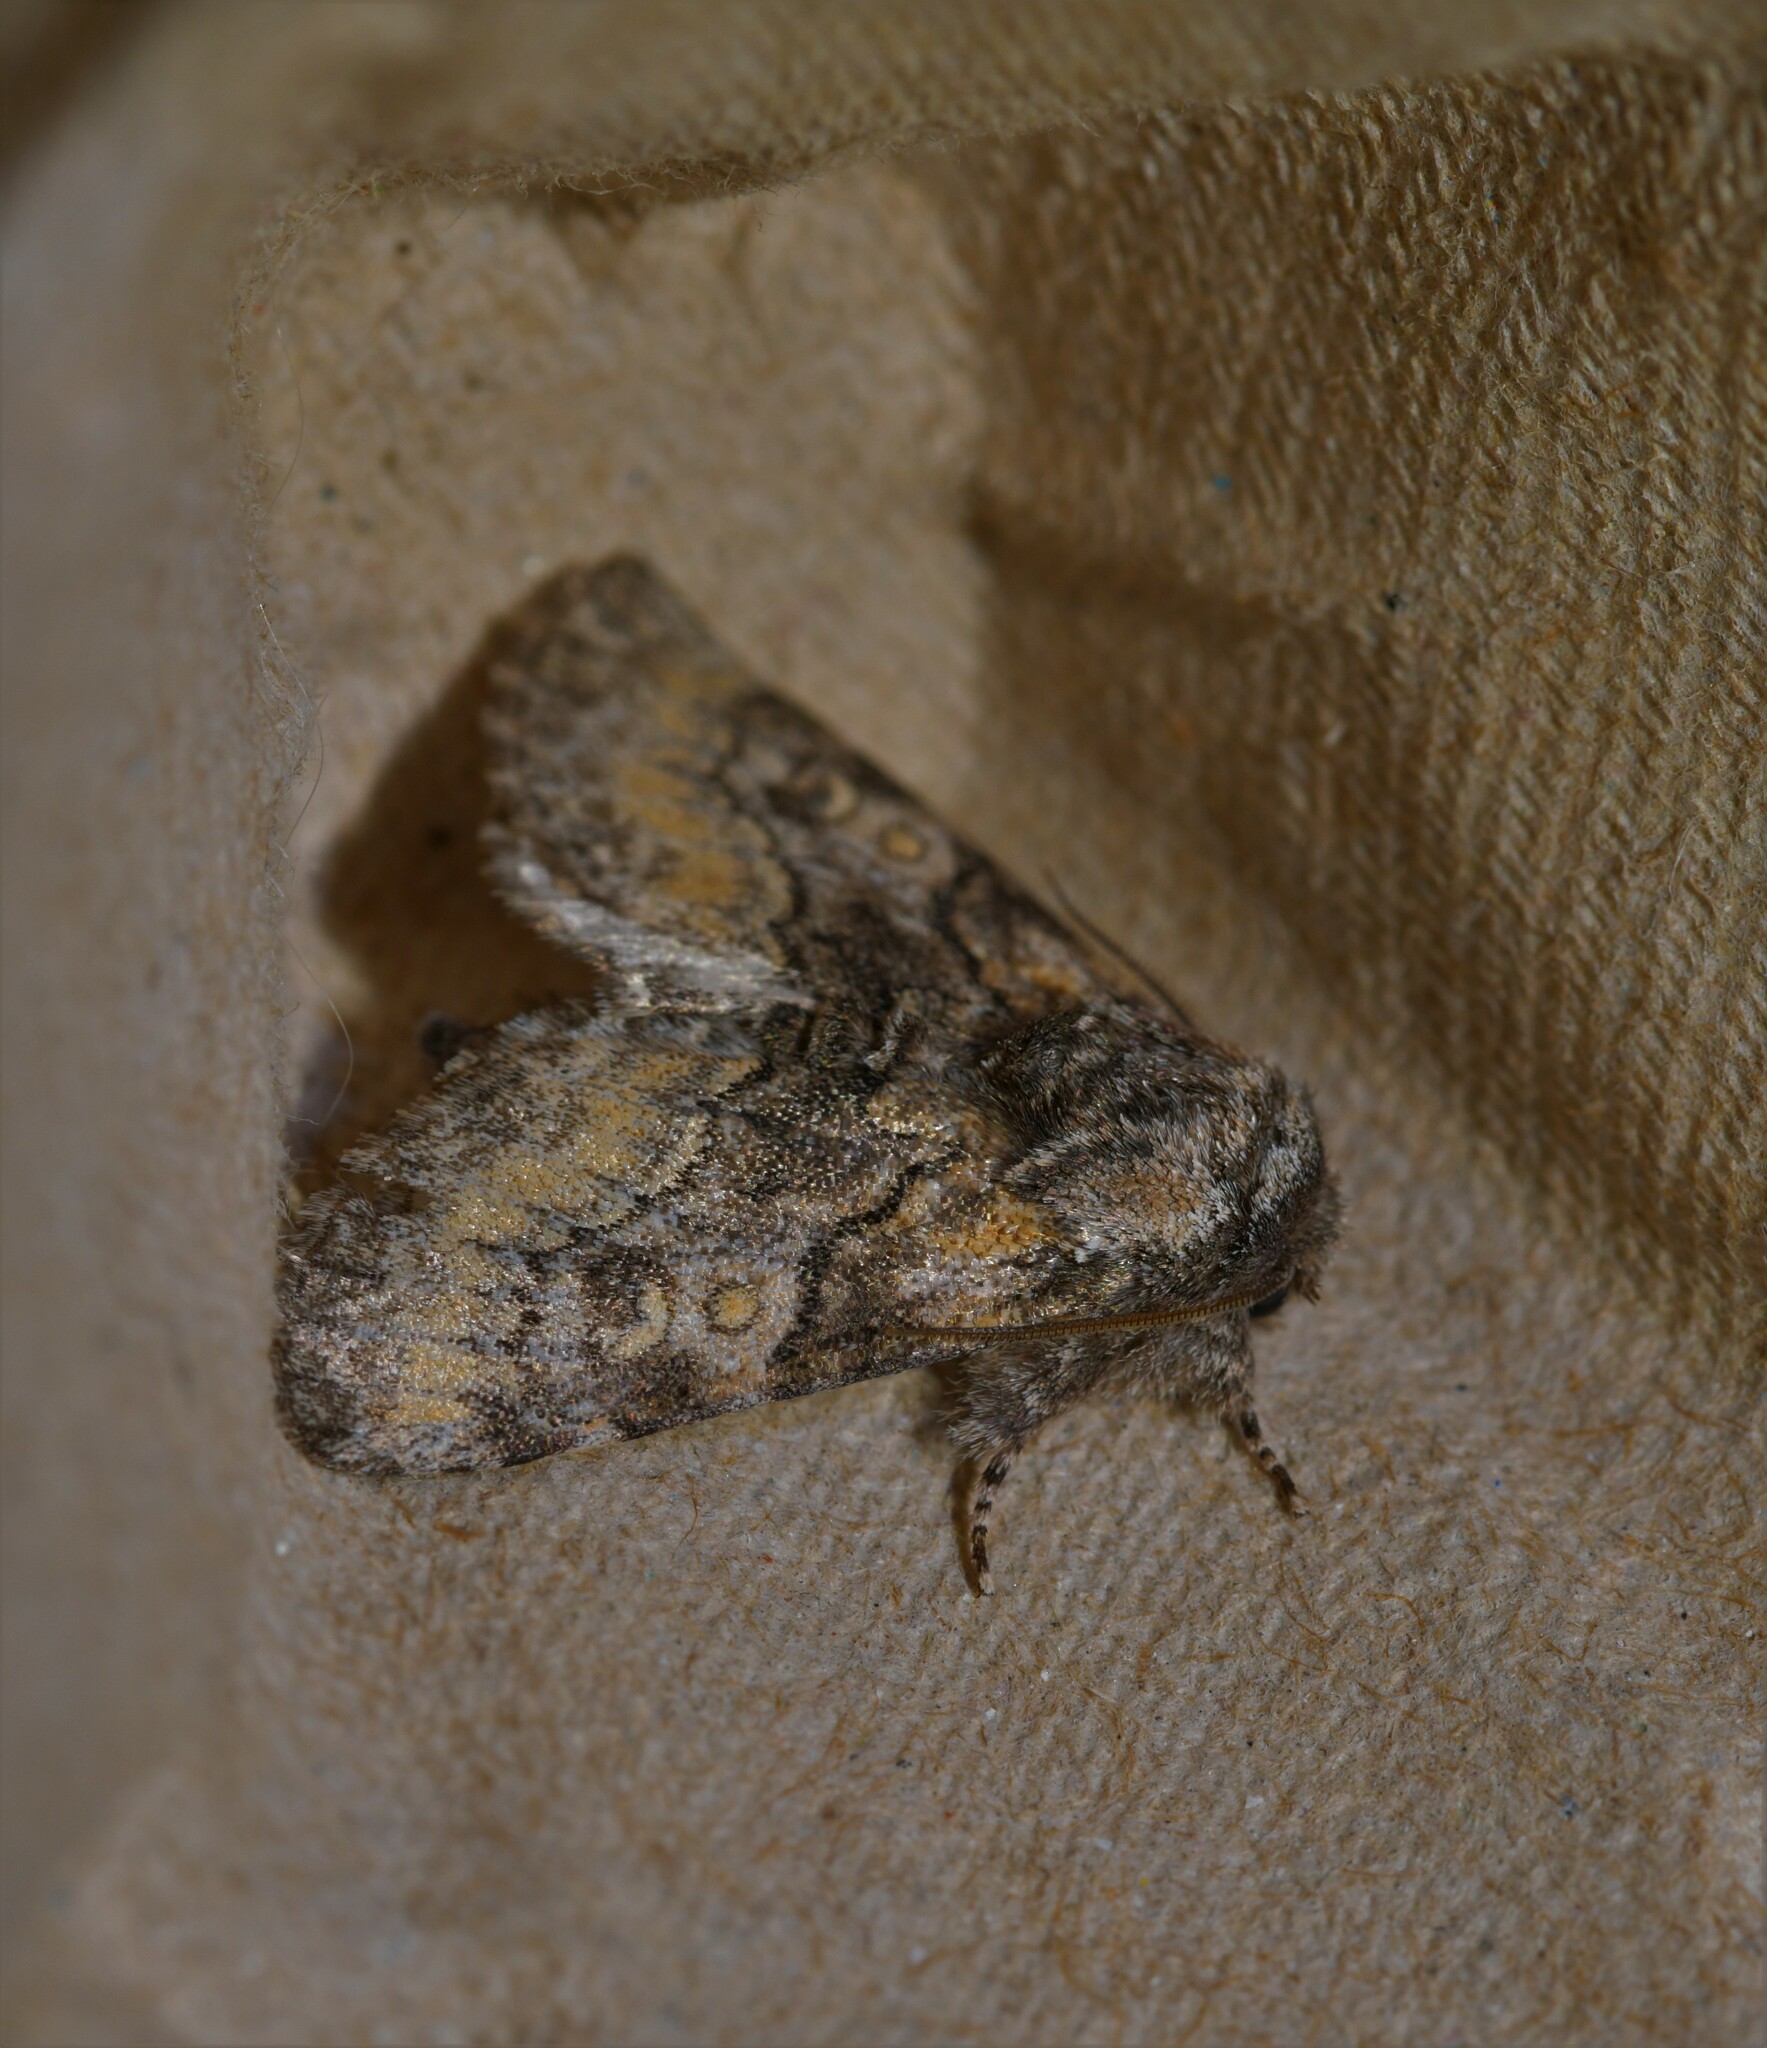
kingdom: Animalia
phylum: Arthropoda
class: Insecta
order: Lepidoptera
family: Noctuidae
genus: Raphia
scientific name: Raphia hybris
